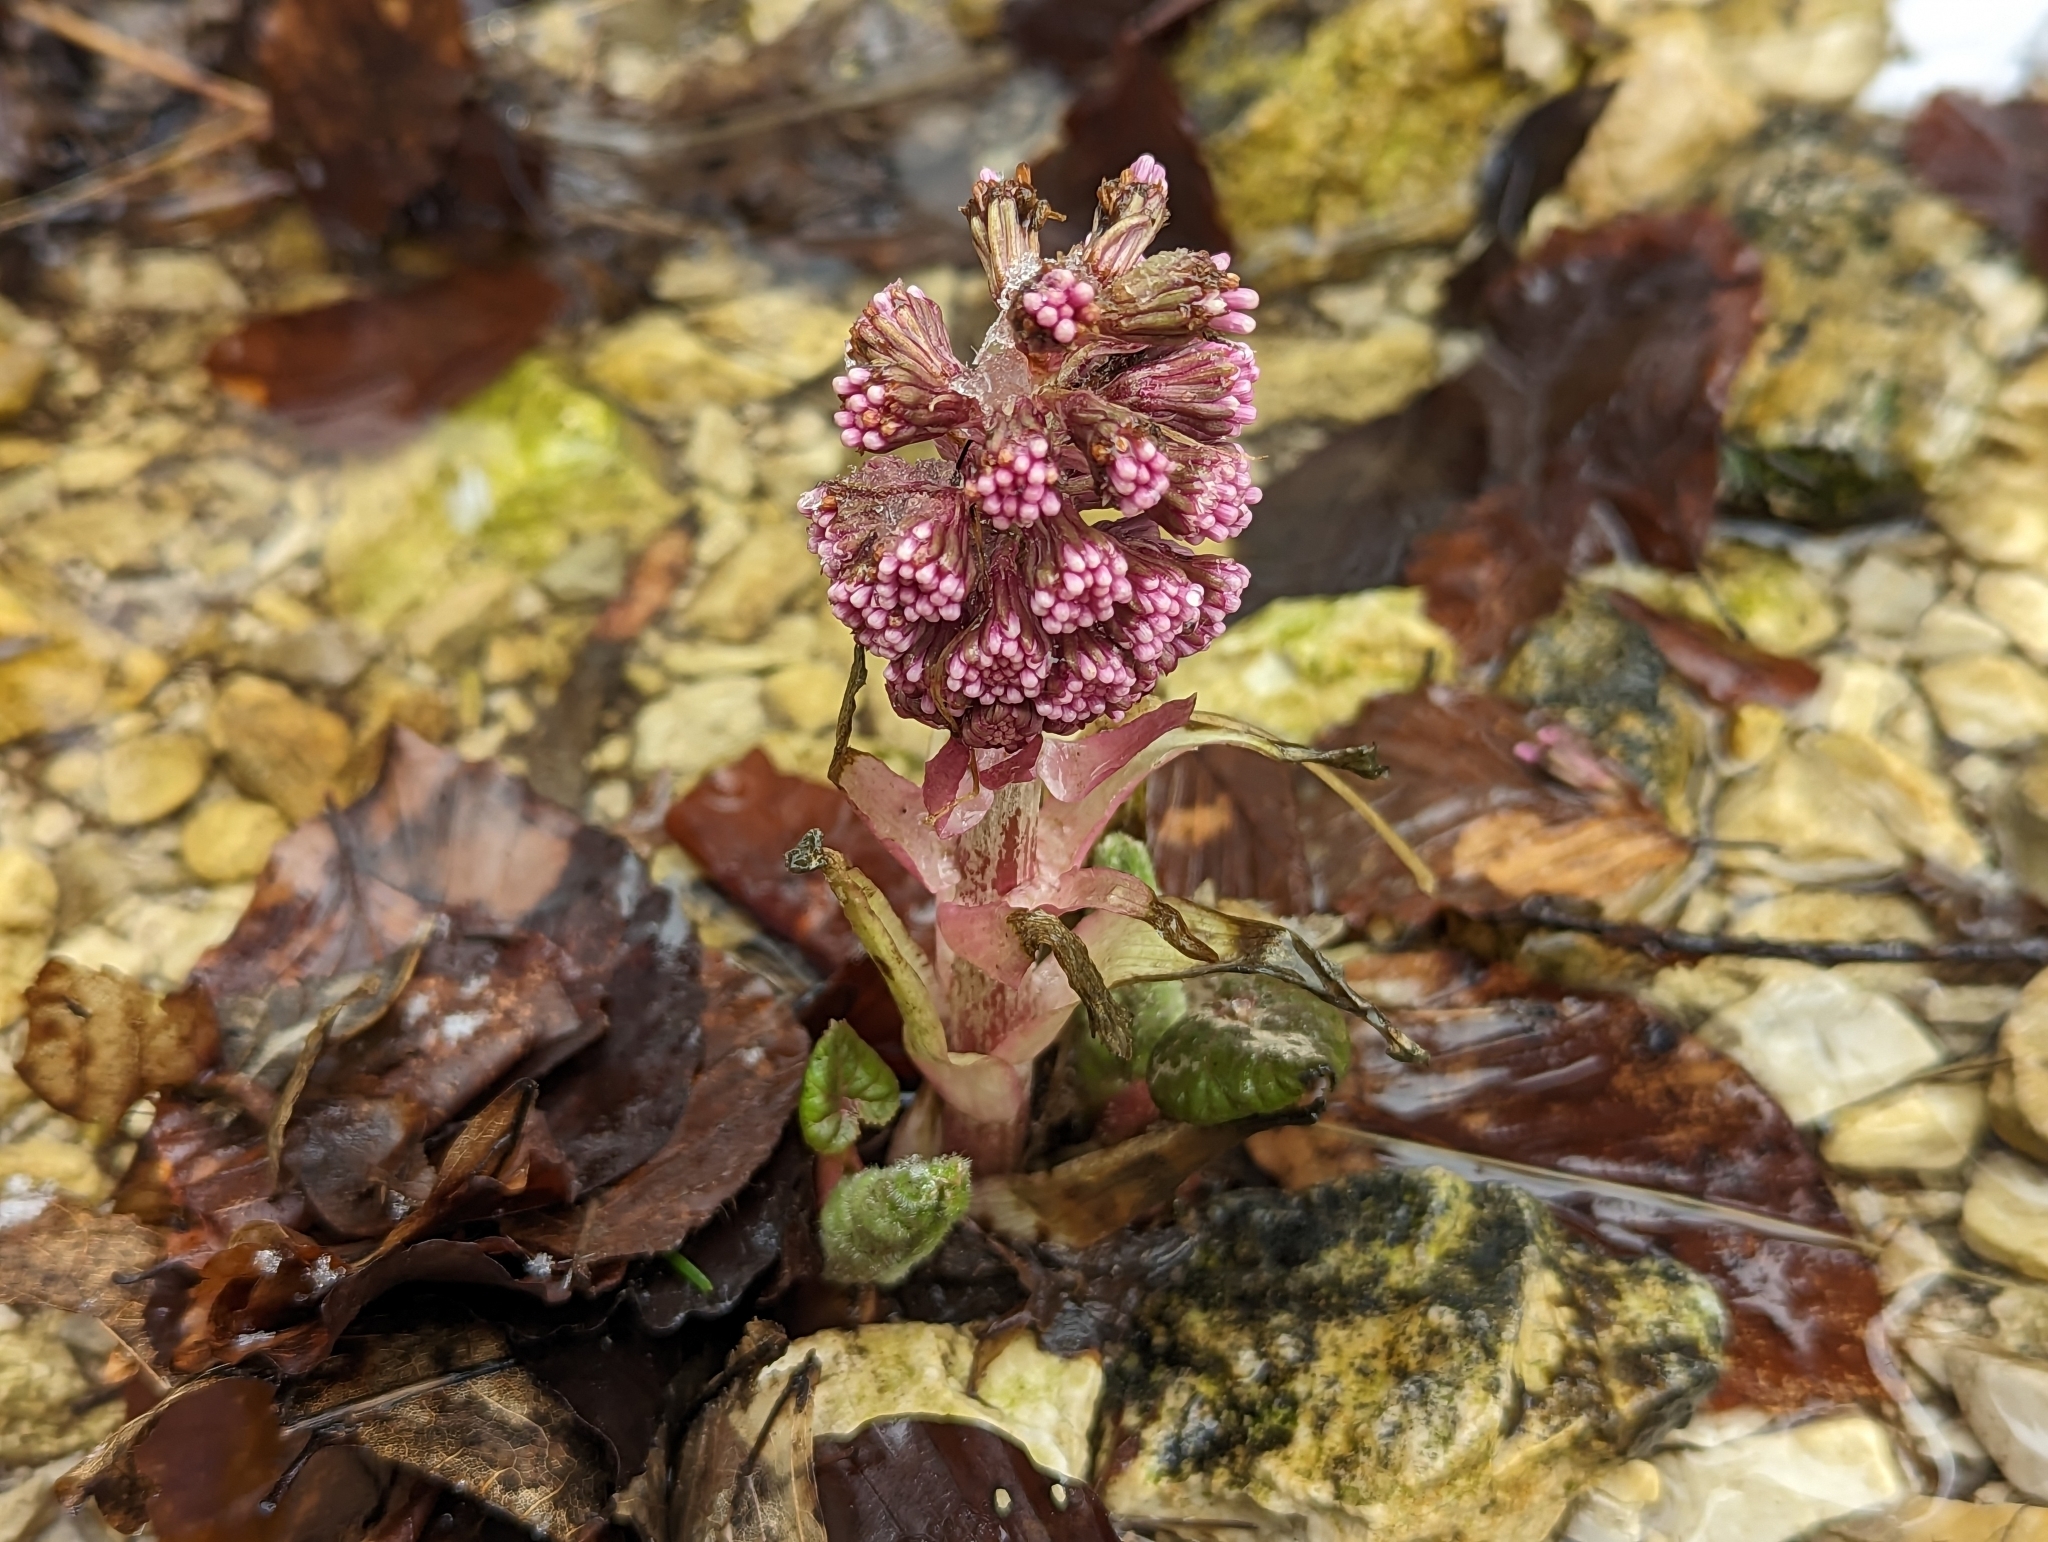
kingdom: Plantae
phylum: Tracheophyta
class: Magnoliopsida
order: Asterales
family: Asteraceae
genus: Petasites
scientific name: Petasites hybridus
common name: Butterbur
